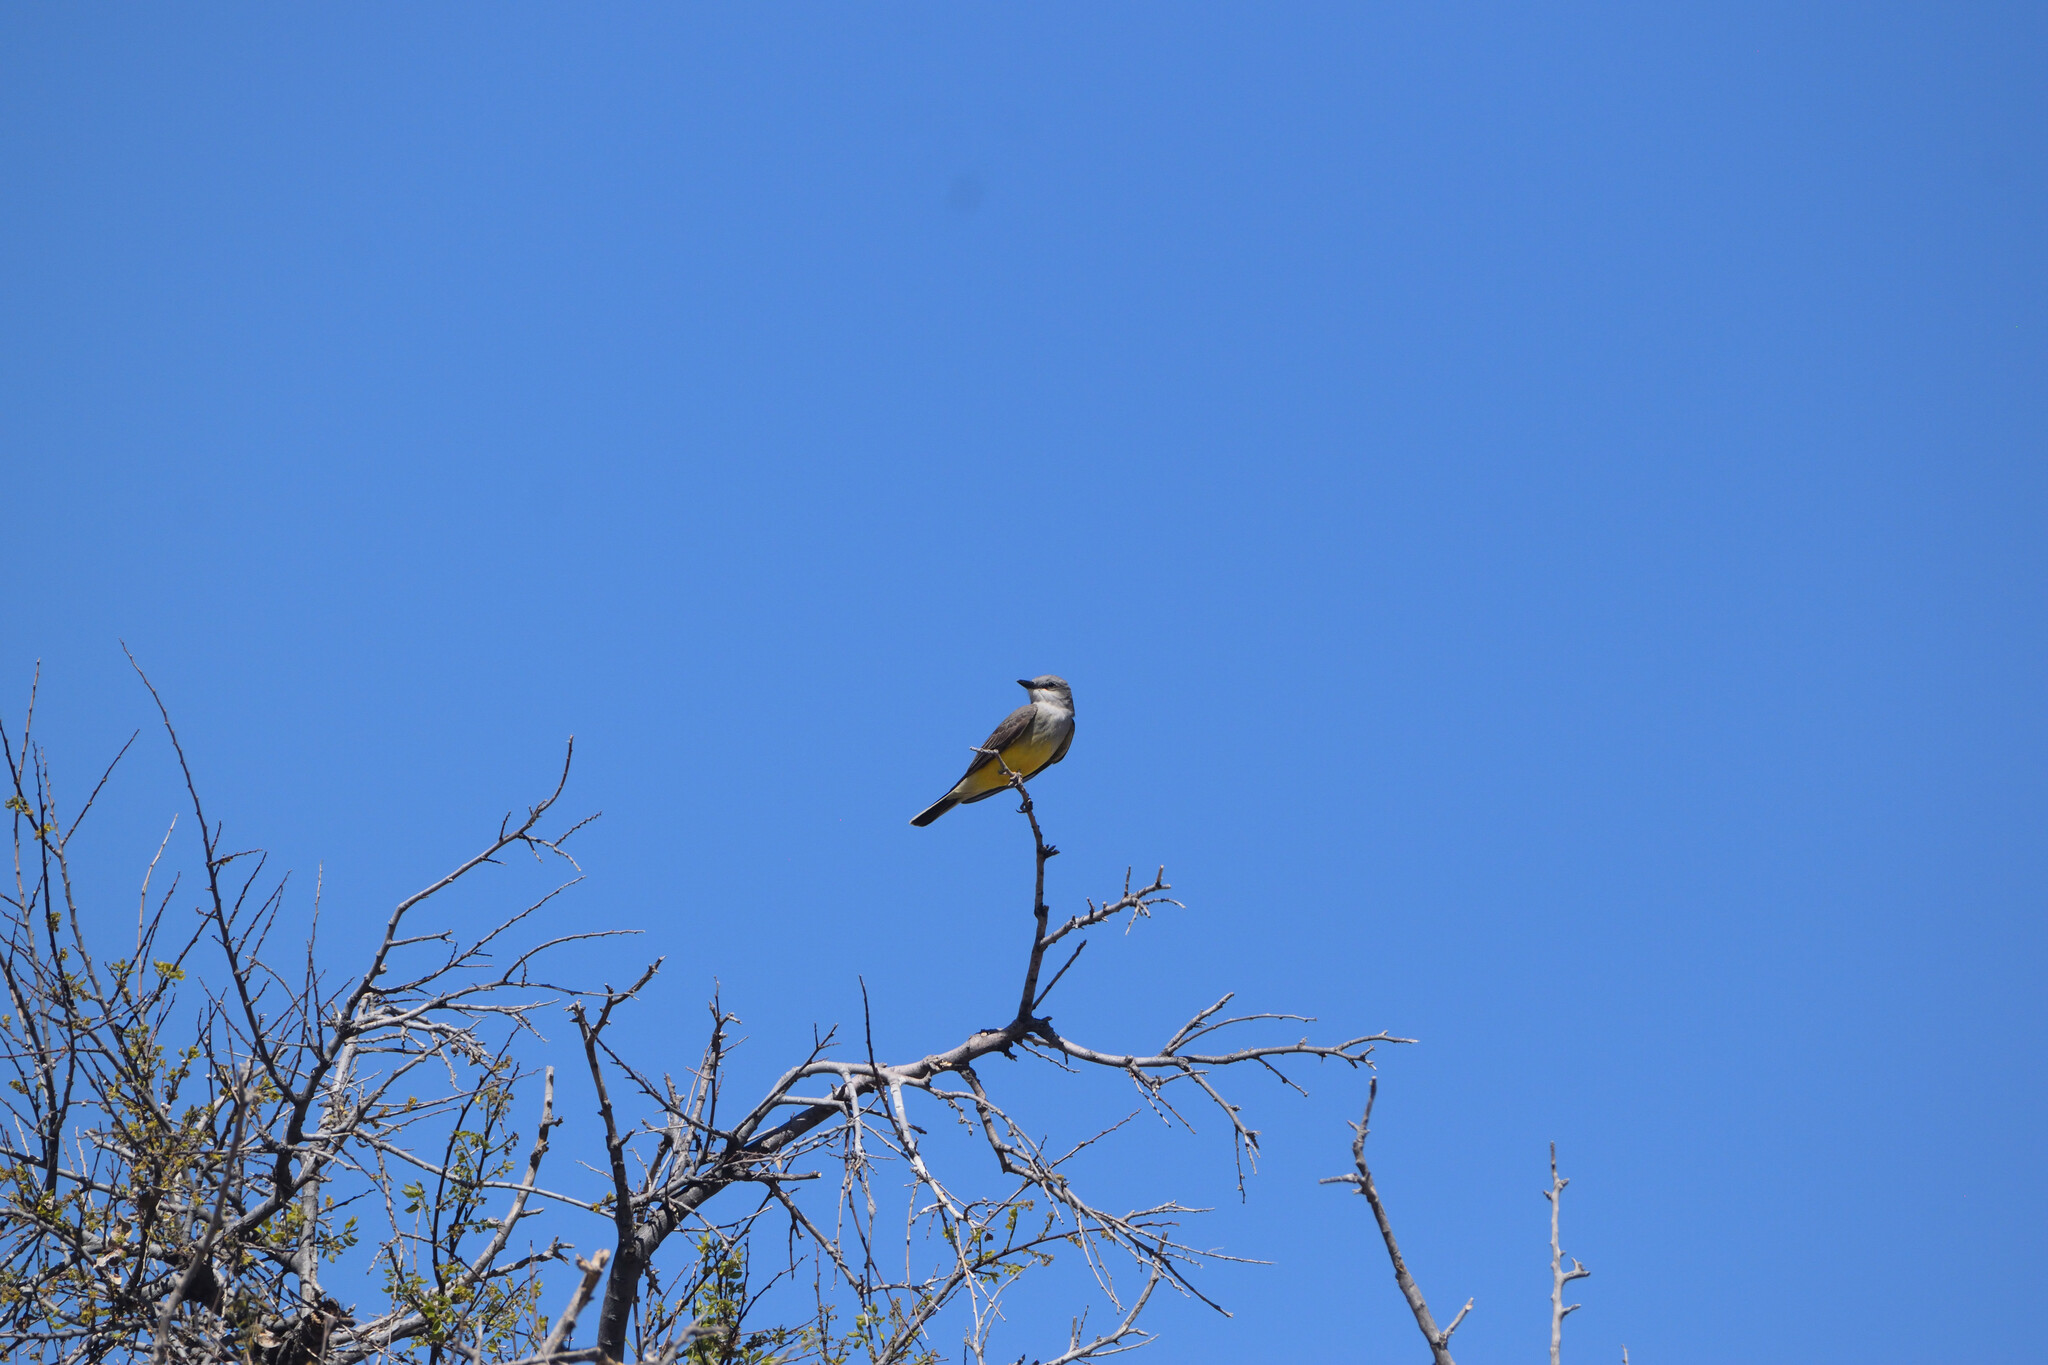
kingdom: Animalia
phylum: Chordata
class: Aves
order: Passeriformes
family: Tyrannidae
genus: Tyrannus
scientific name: Tyrannus verticalis
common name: Western kingbird
